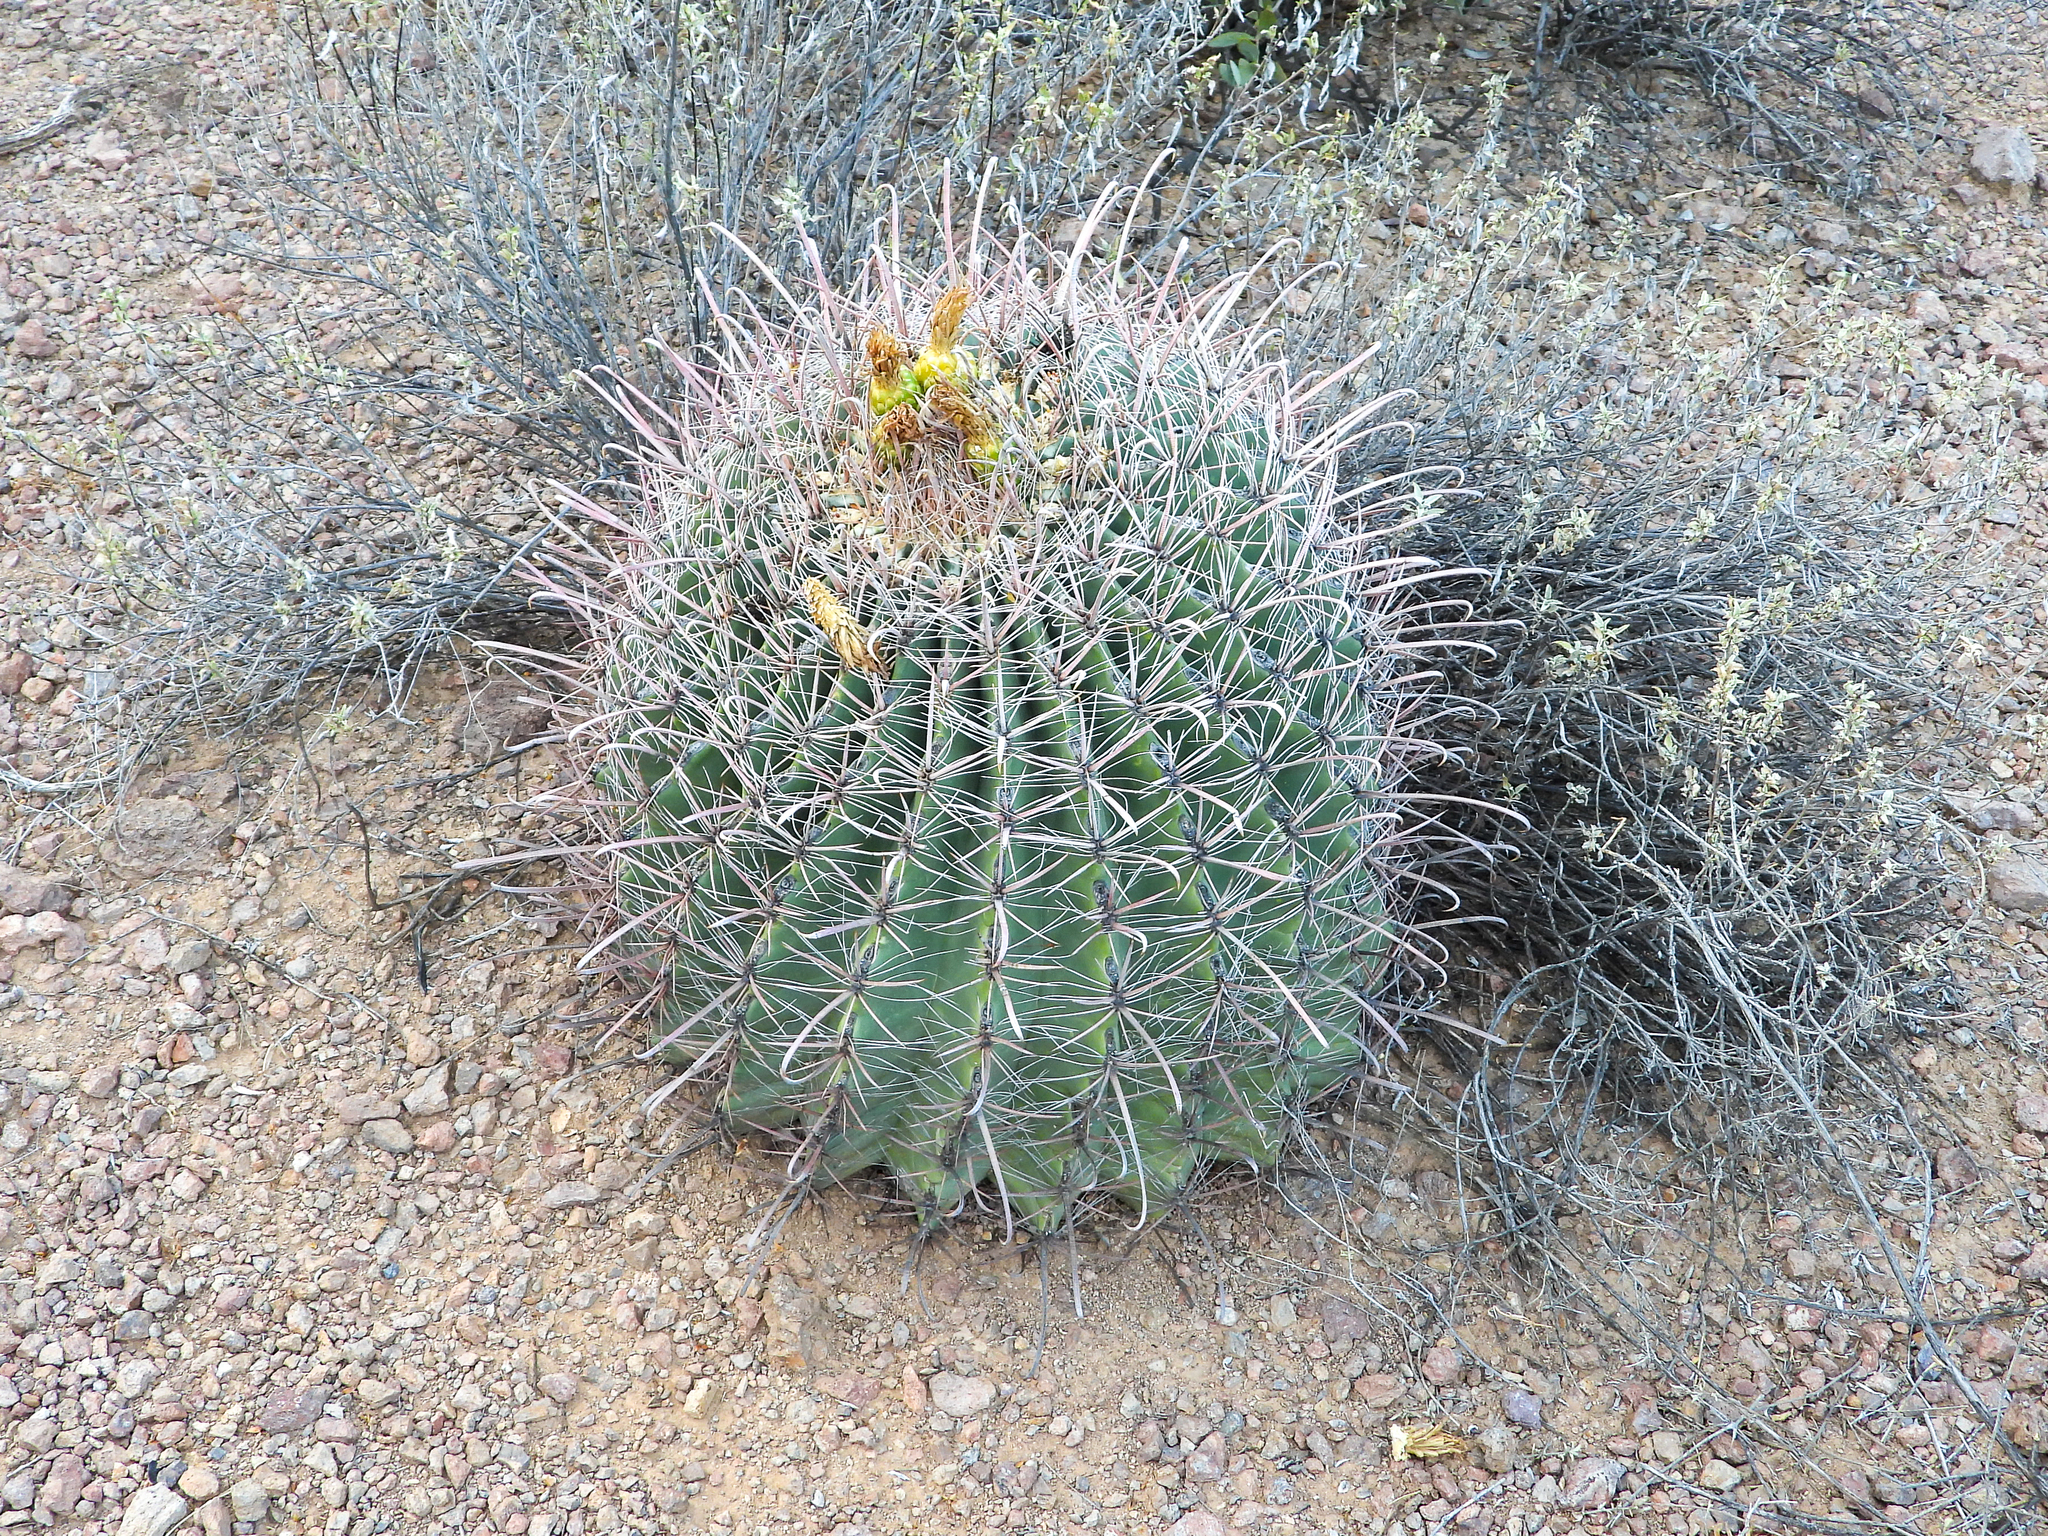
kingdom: Plantae
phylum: Tracheophyta
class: Magnoliopsida
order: Caryophyllales
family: Cactaceae
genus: Ferocactus
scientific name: Ferocactus wislizeni
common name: Candy barrel cactus
